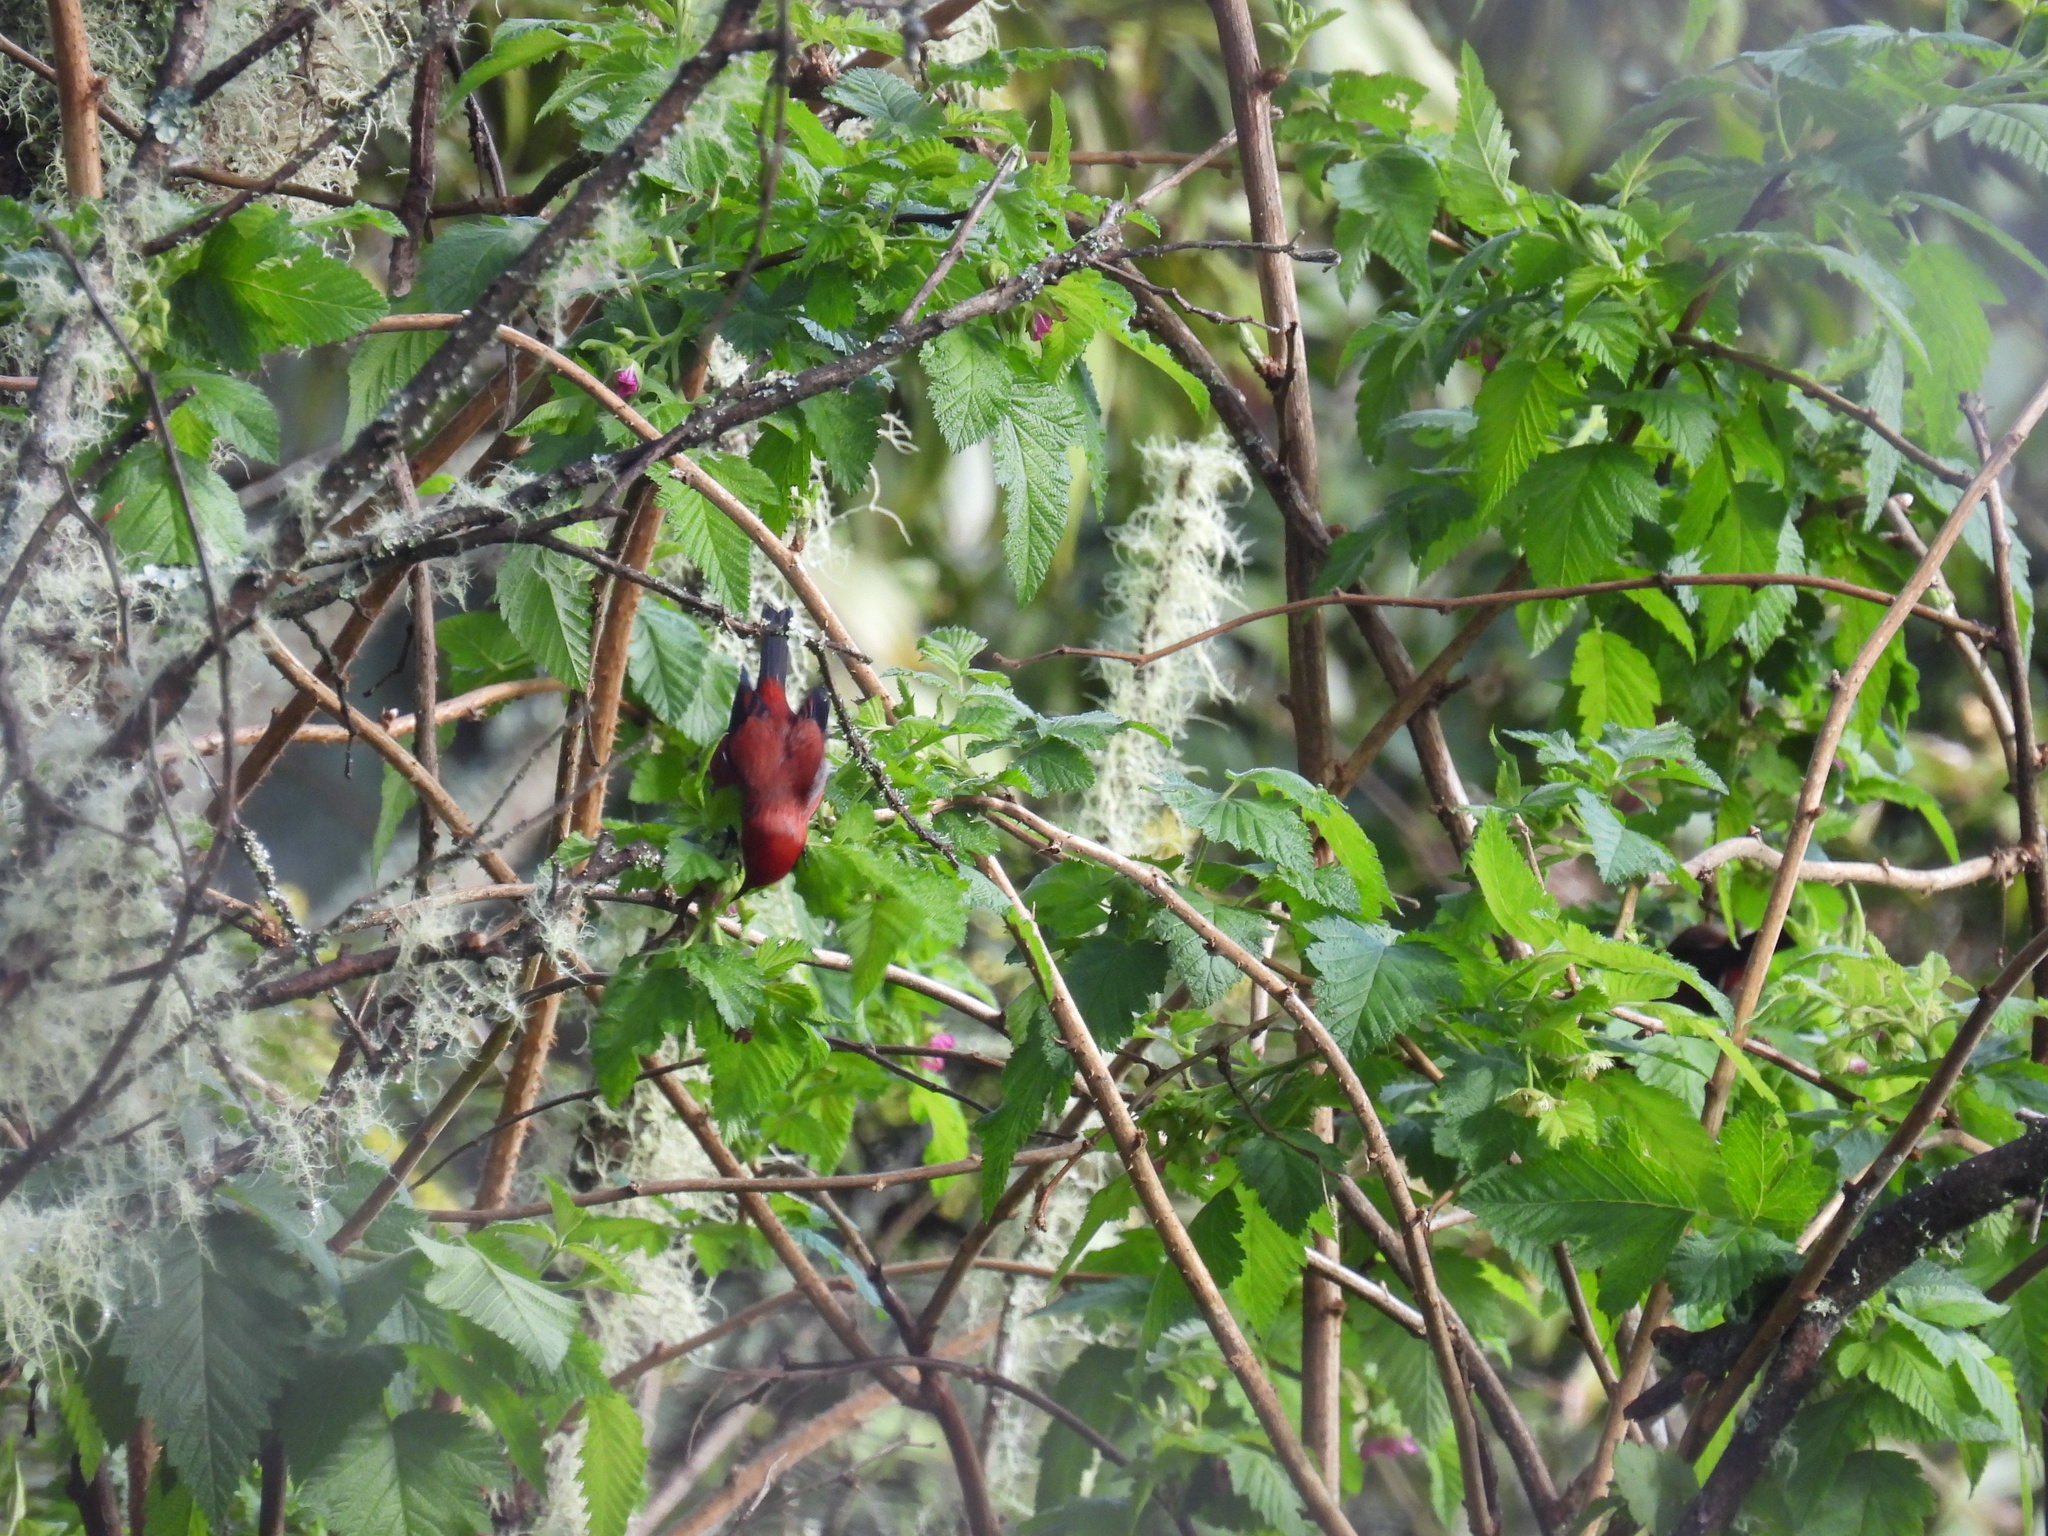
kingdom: Animalia
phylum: Chordata
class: Aves
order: Passeriformes
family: Fringillidae
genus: Himatione
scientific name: Himatione sanguinea
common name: Apapane
